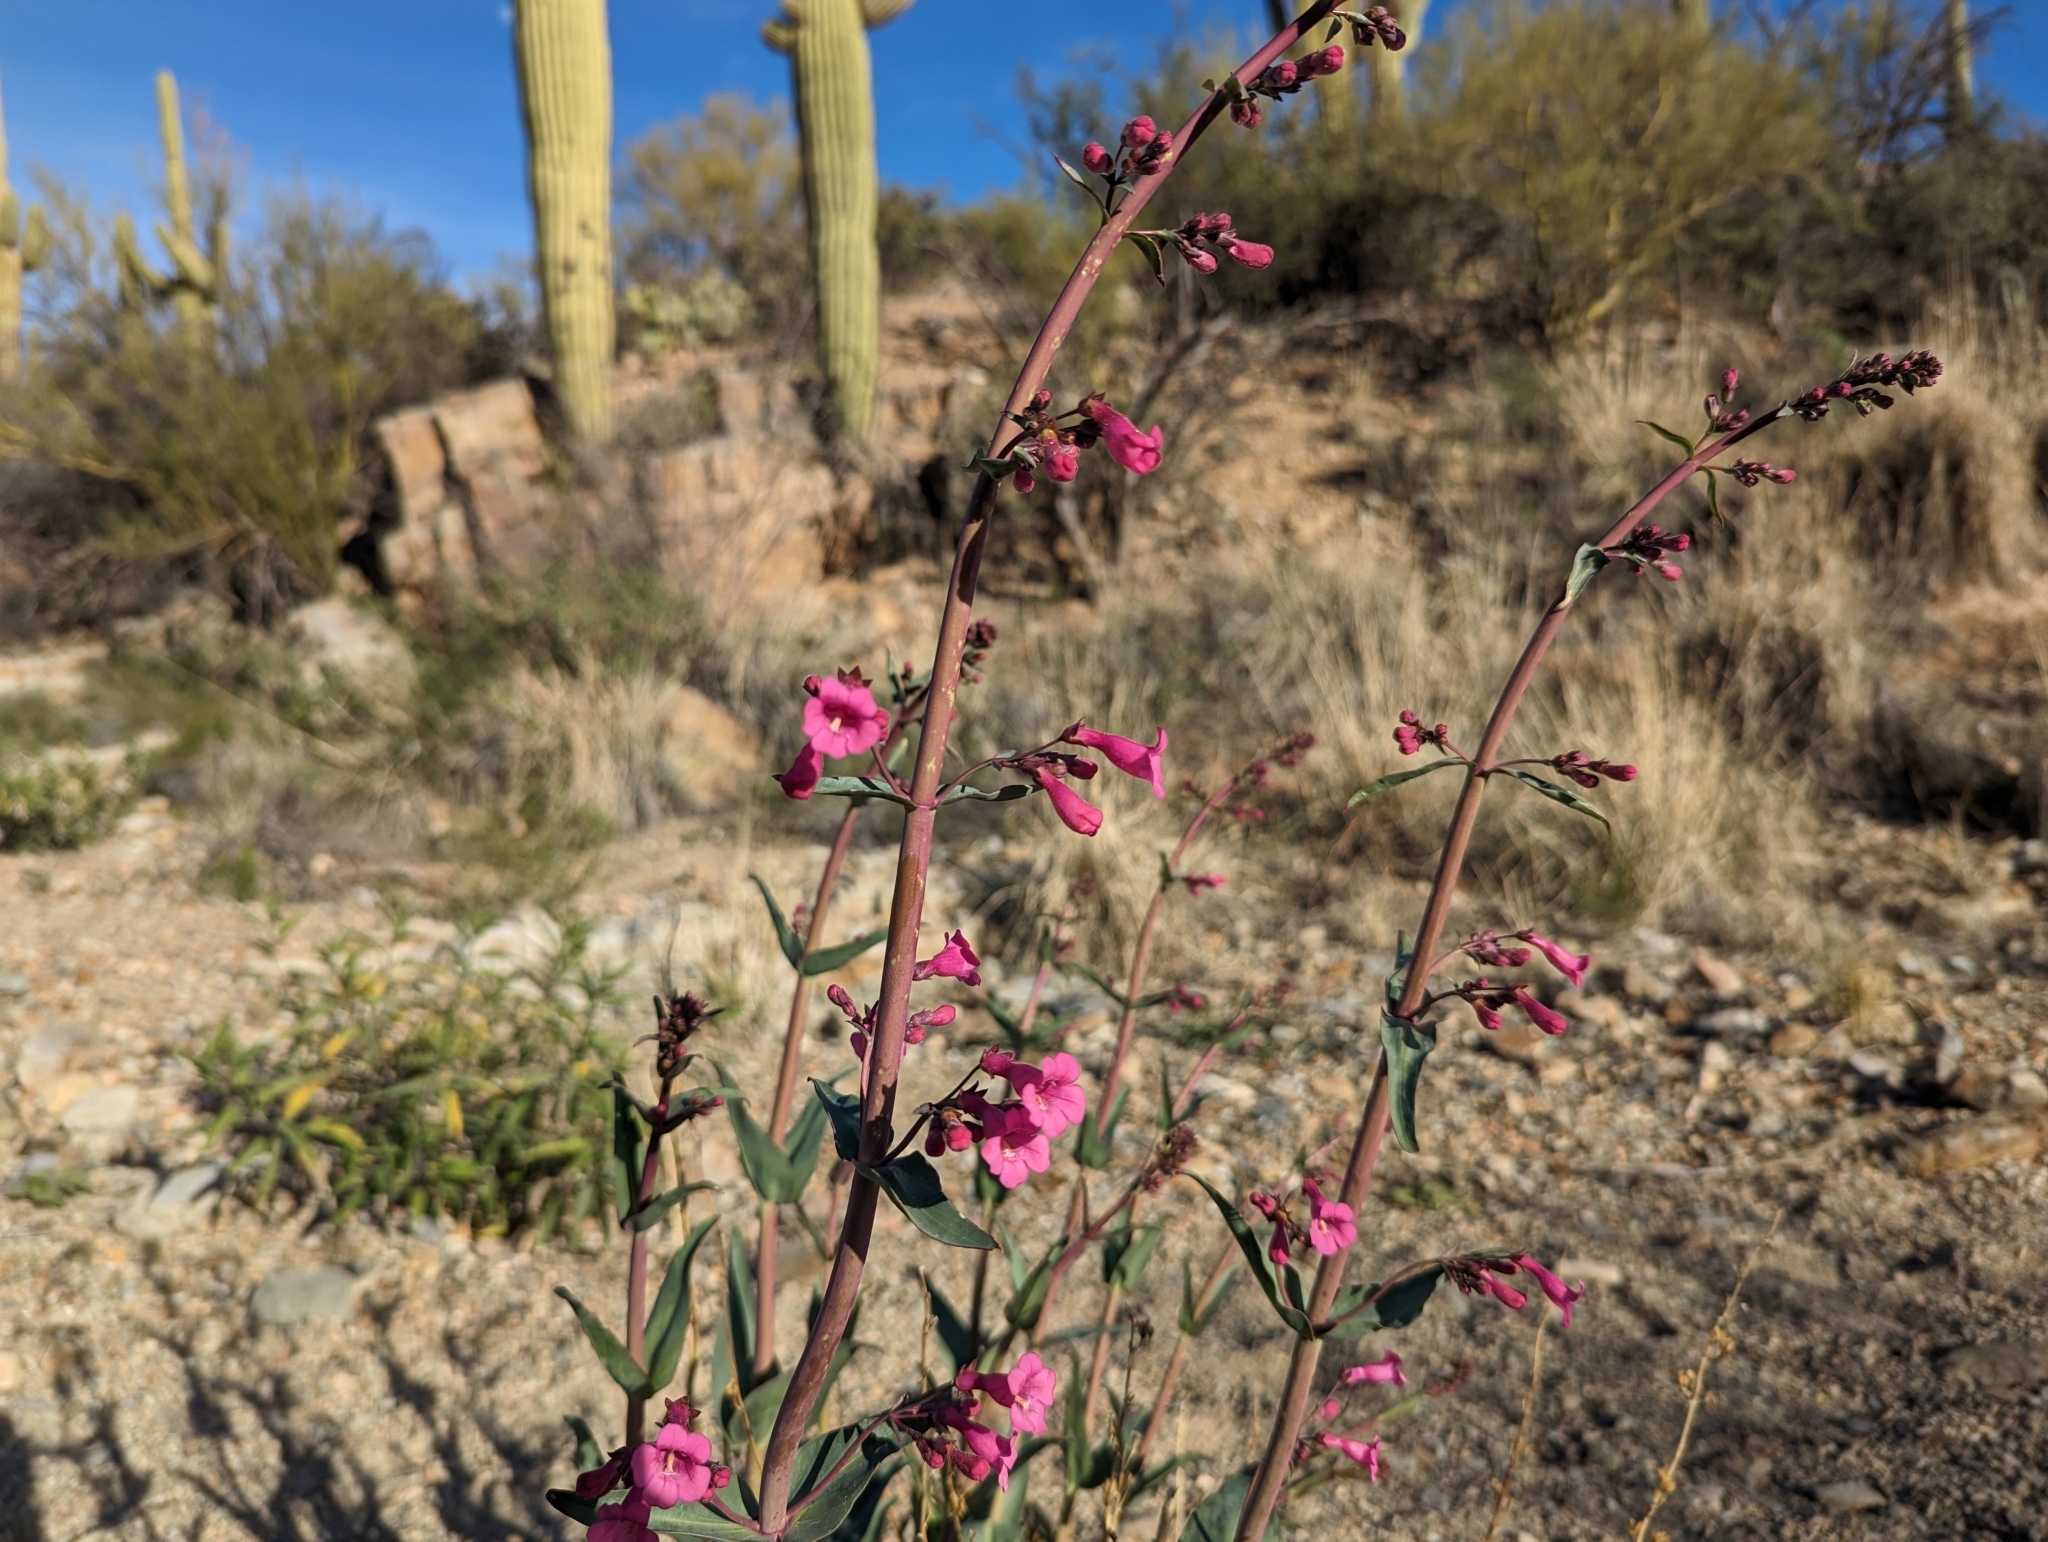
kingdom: Plantae
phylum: Tracheophyta
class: Magnoliopsida
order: Lamiales
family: Plantaginaceae
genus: Penstemon
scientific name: Penstemon parryi
